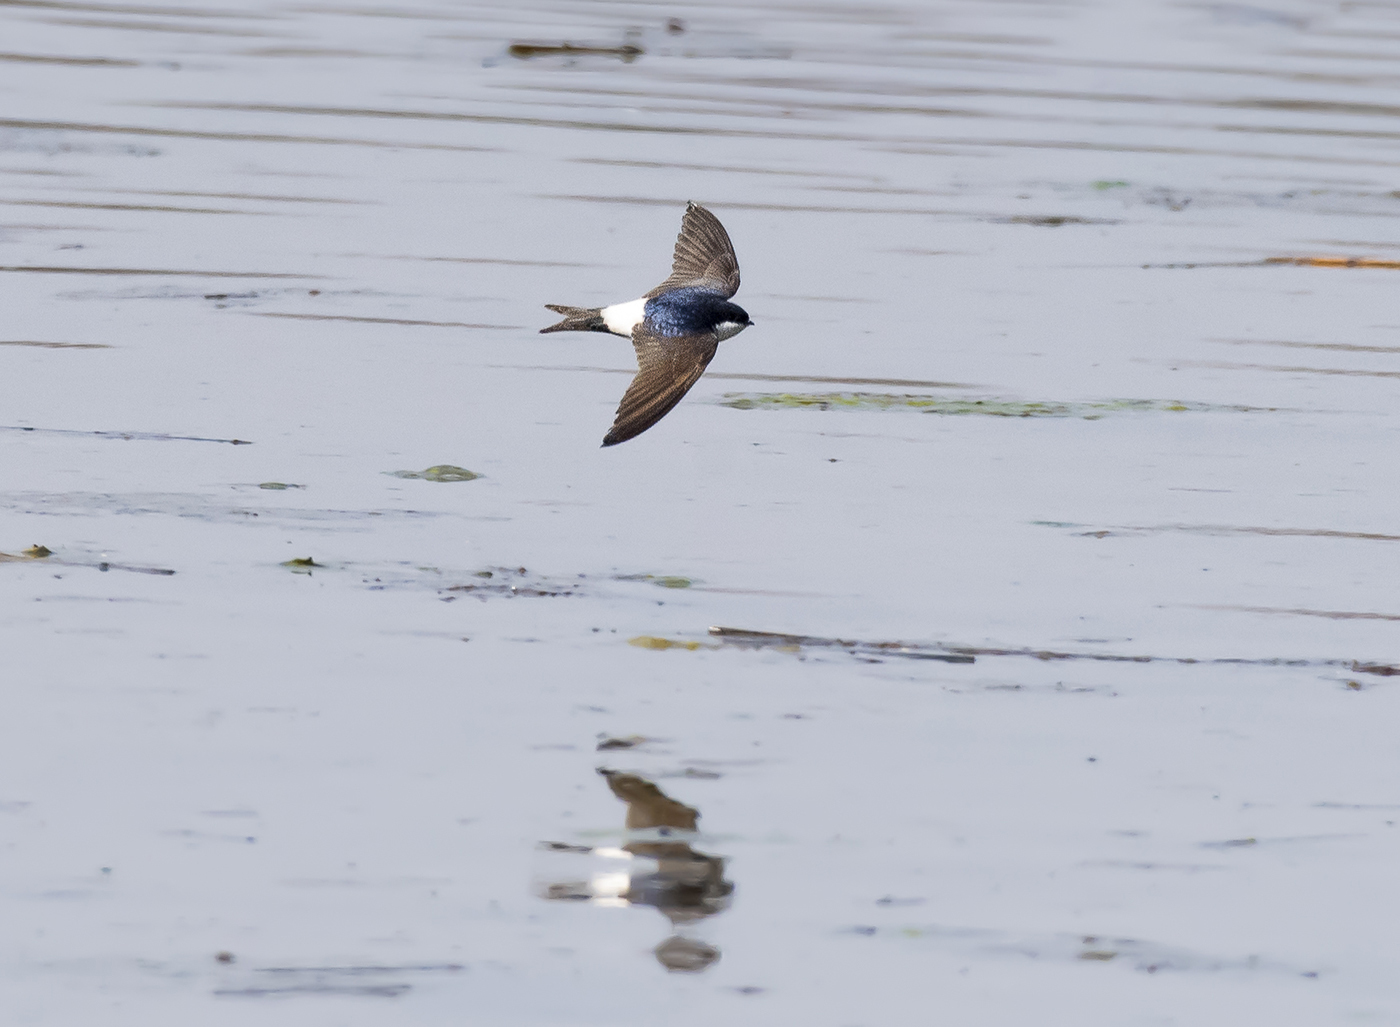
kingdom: Animalia
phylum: Chordata
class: Aves
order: Passeriformes
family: Hirundinidae
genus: Delichon
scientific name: Delichon urbicum
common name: Common house martin
